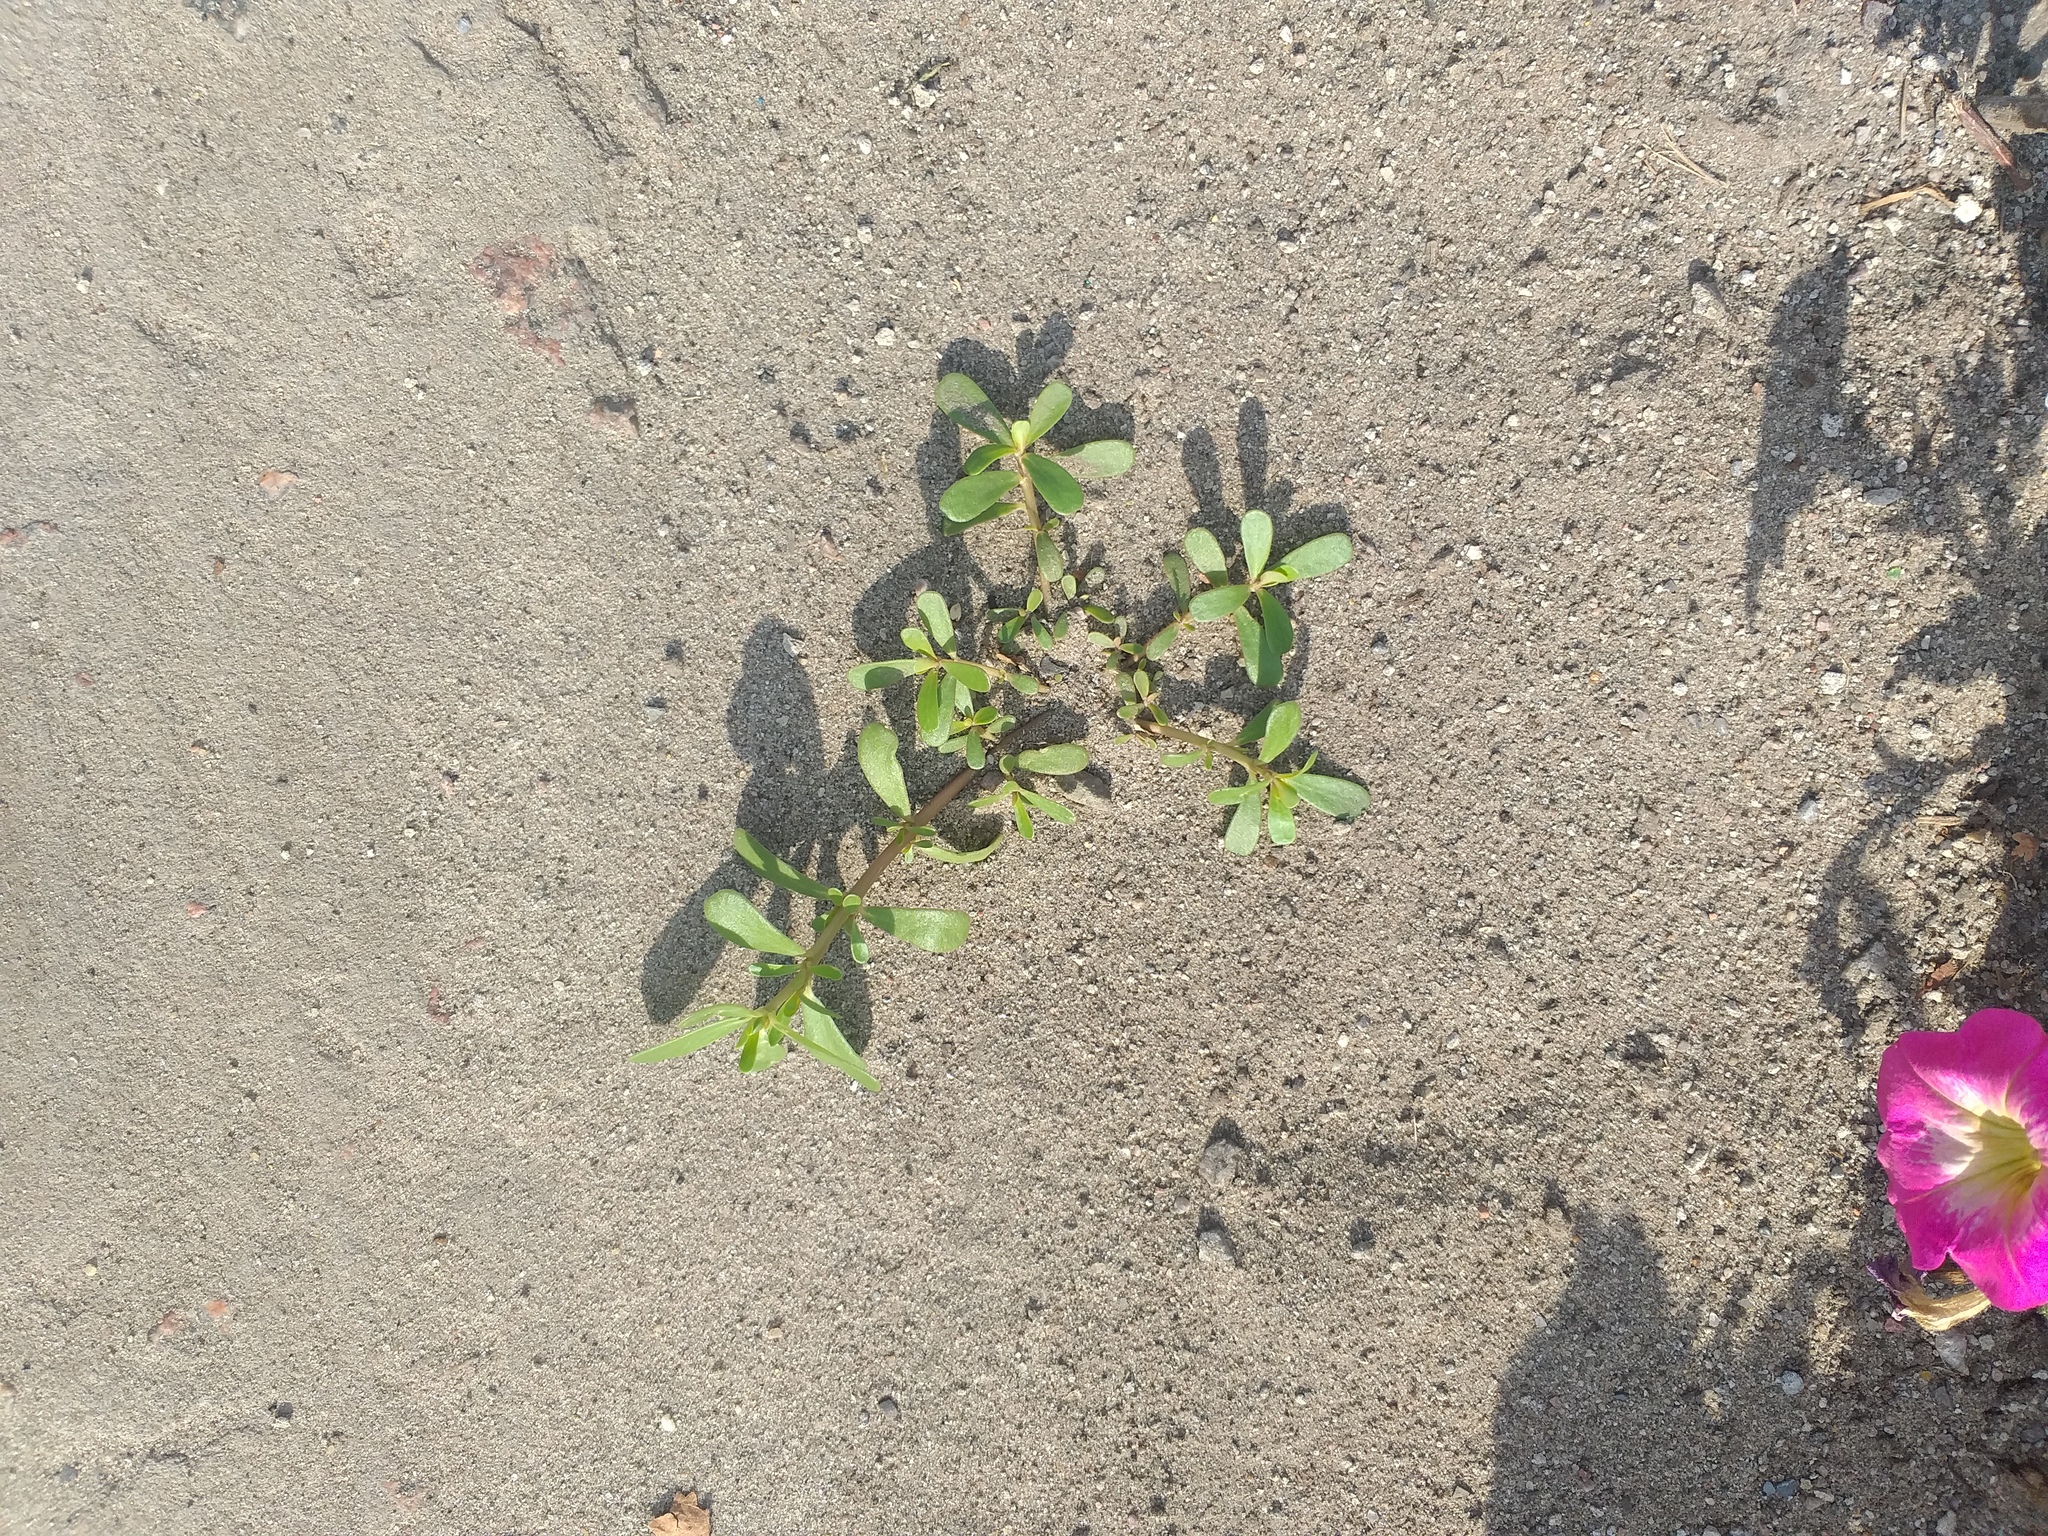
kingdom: Plantae
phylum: Tracheophyta
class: Magnoliopsida
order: Caryophyllales
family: Portulacaceae
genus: Portulaca
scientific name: Portulaca oleracea
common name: Common purslane
